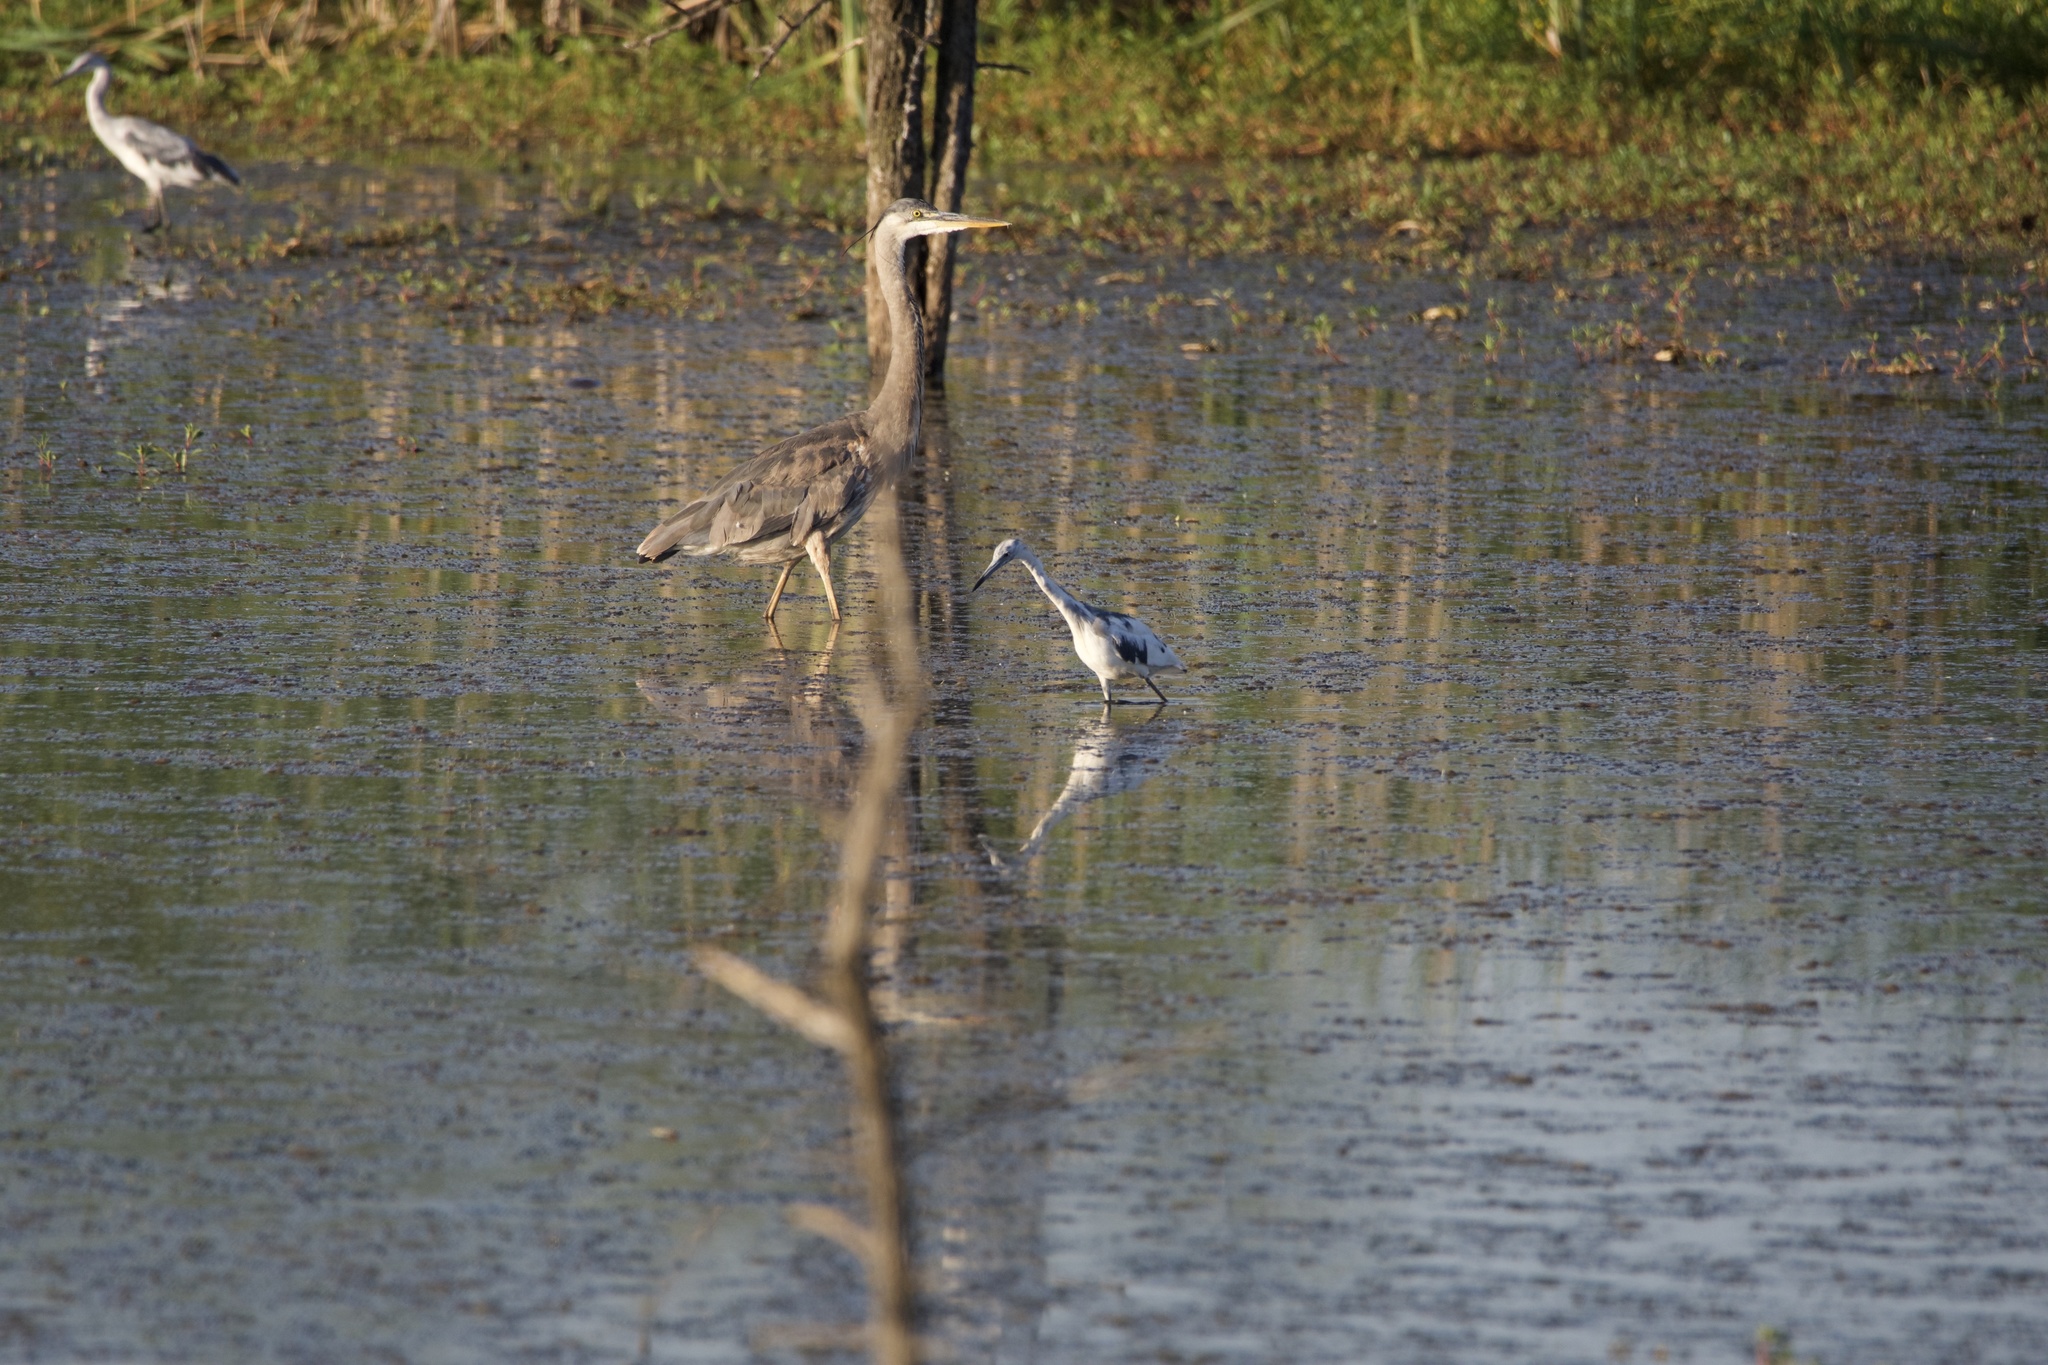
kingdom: Animalia
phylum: Chordata
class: Aves
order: Pelecaniformes
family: Ardeidae
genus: Ardea
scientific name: Ardea herodias
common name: Great blue heron
